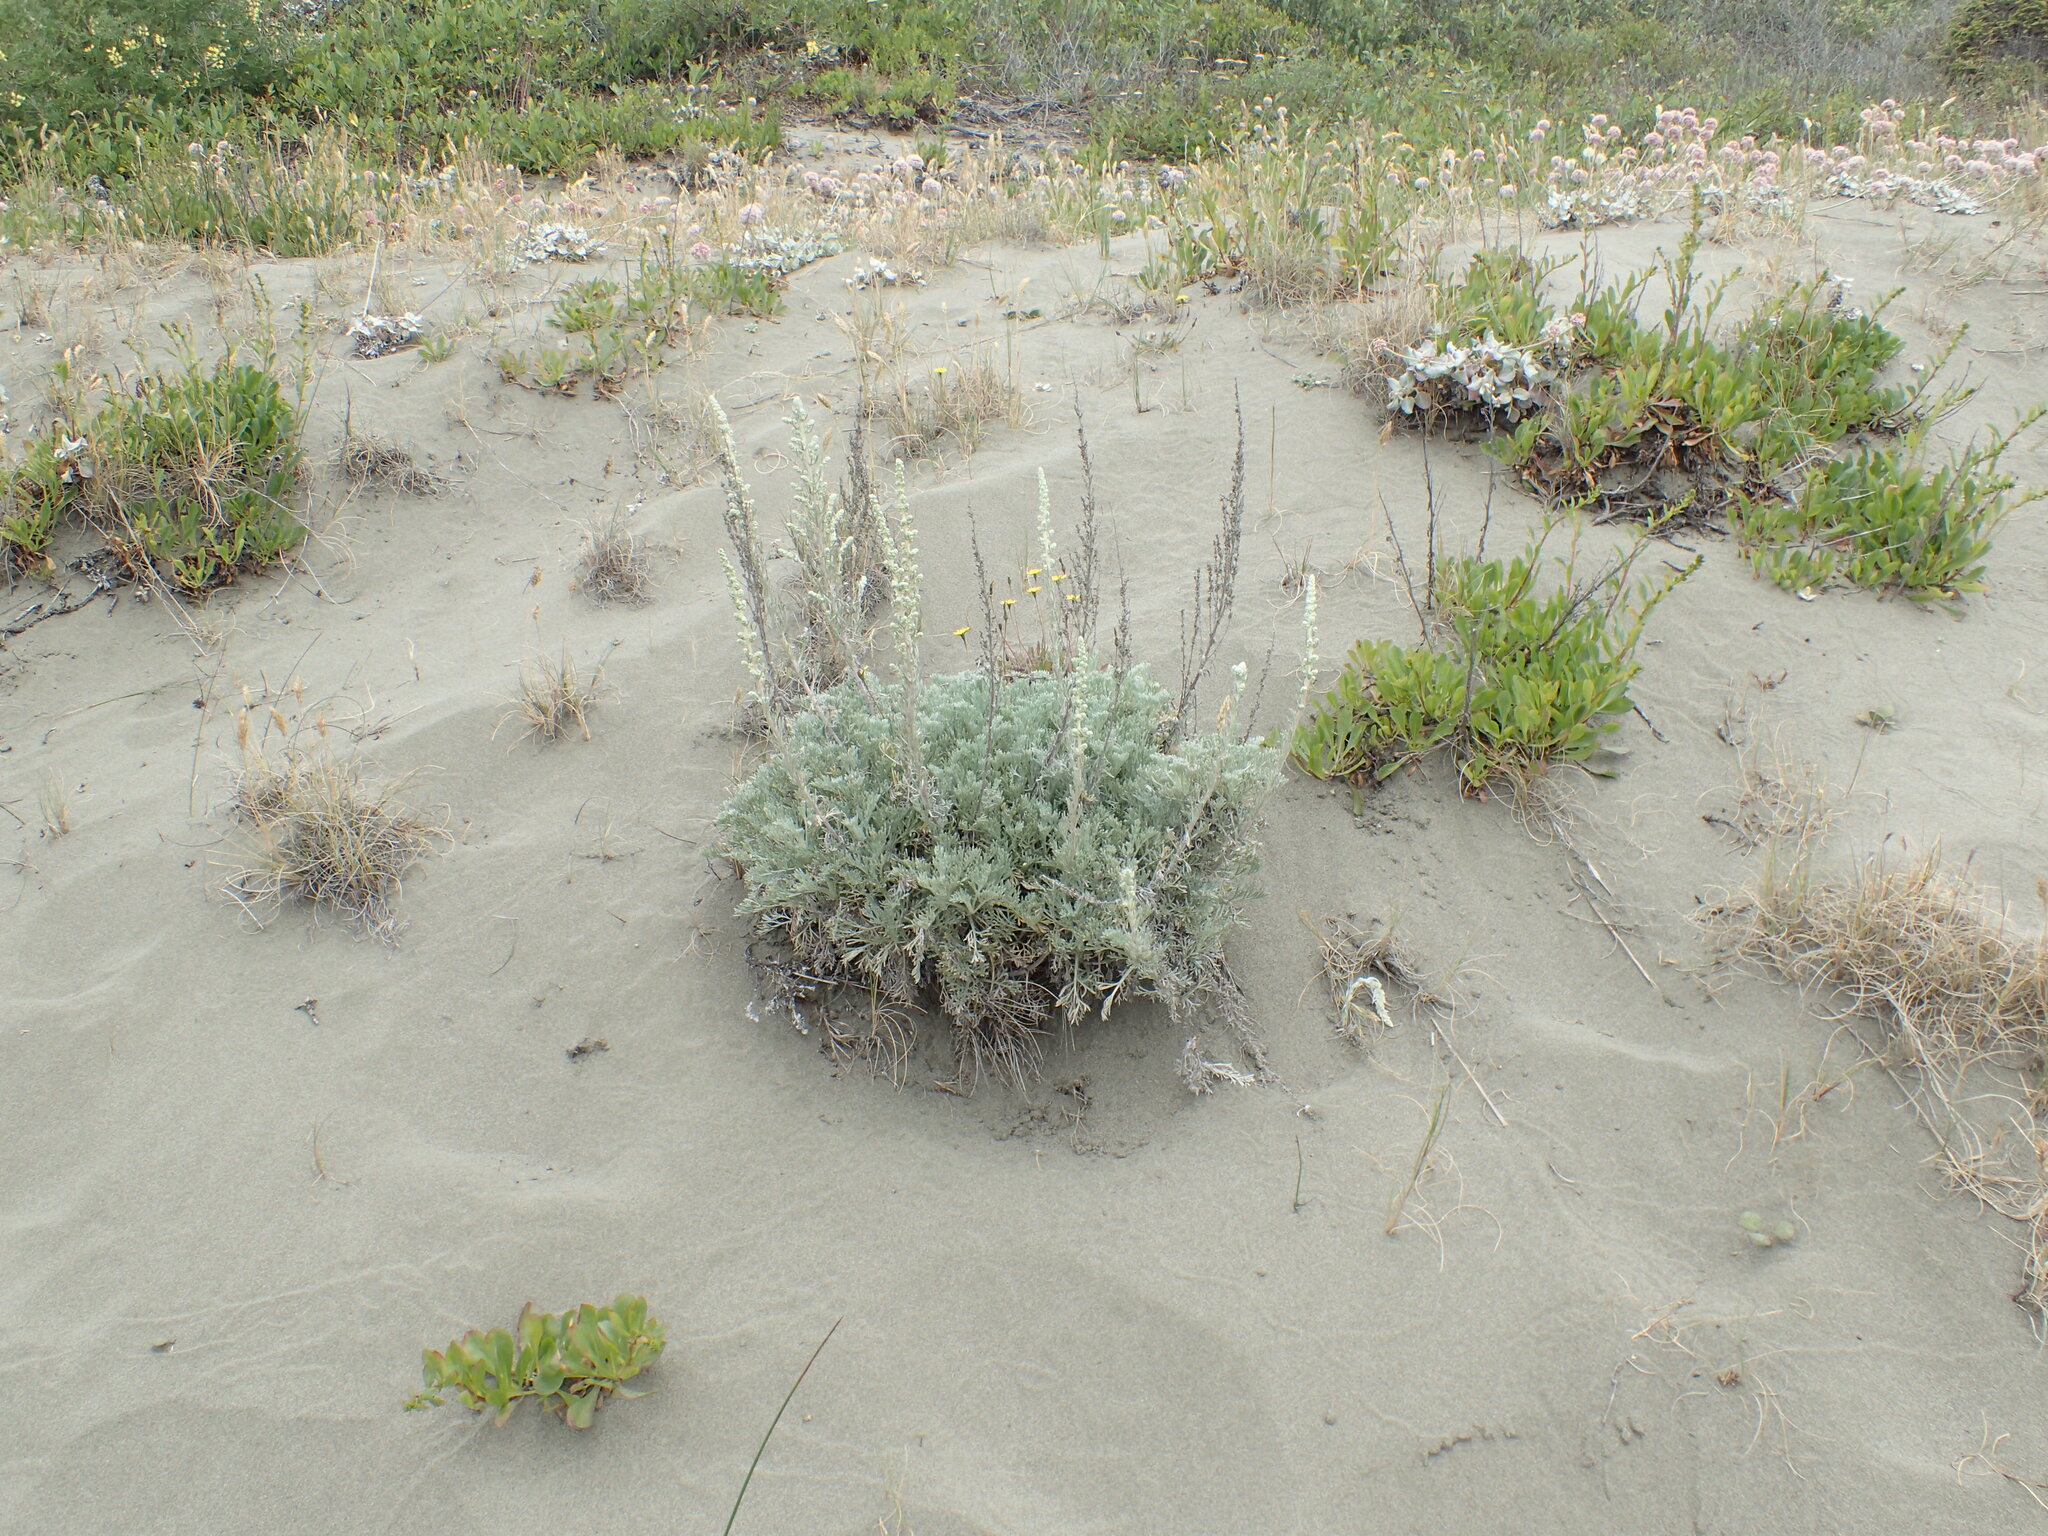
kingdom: Plantae
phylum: Tracheophyta
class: Magnoliopsida
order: Asterales
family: Asteraceae
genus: Artemisia
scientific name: Artemisia pycnocephala
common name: Coastal sagewort
